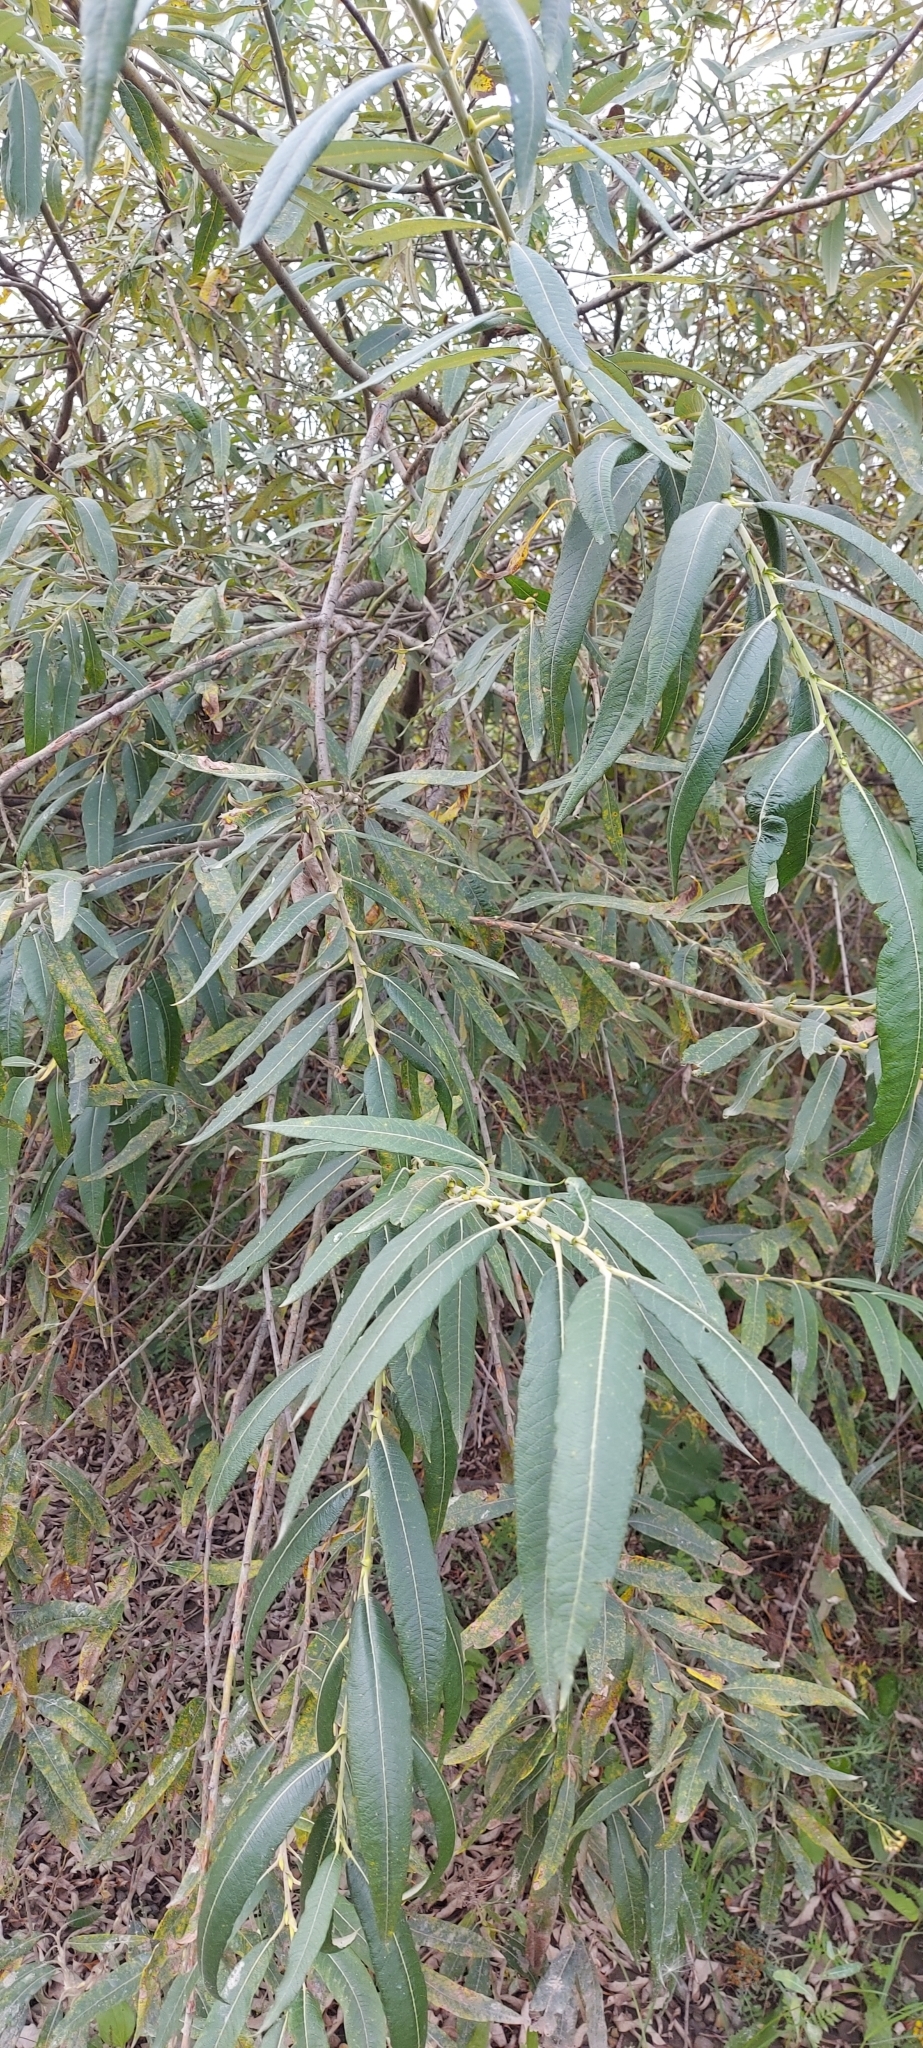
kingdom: Plantae
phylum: Tracheophyta
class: Magnoliopsida
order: Malpighiales
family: Salicaceae
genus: Salix
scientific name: Salix gmelinii
